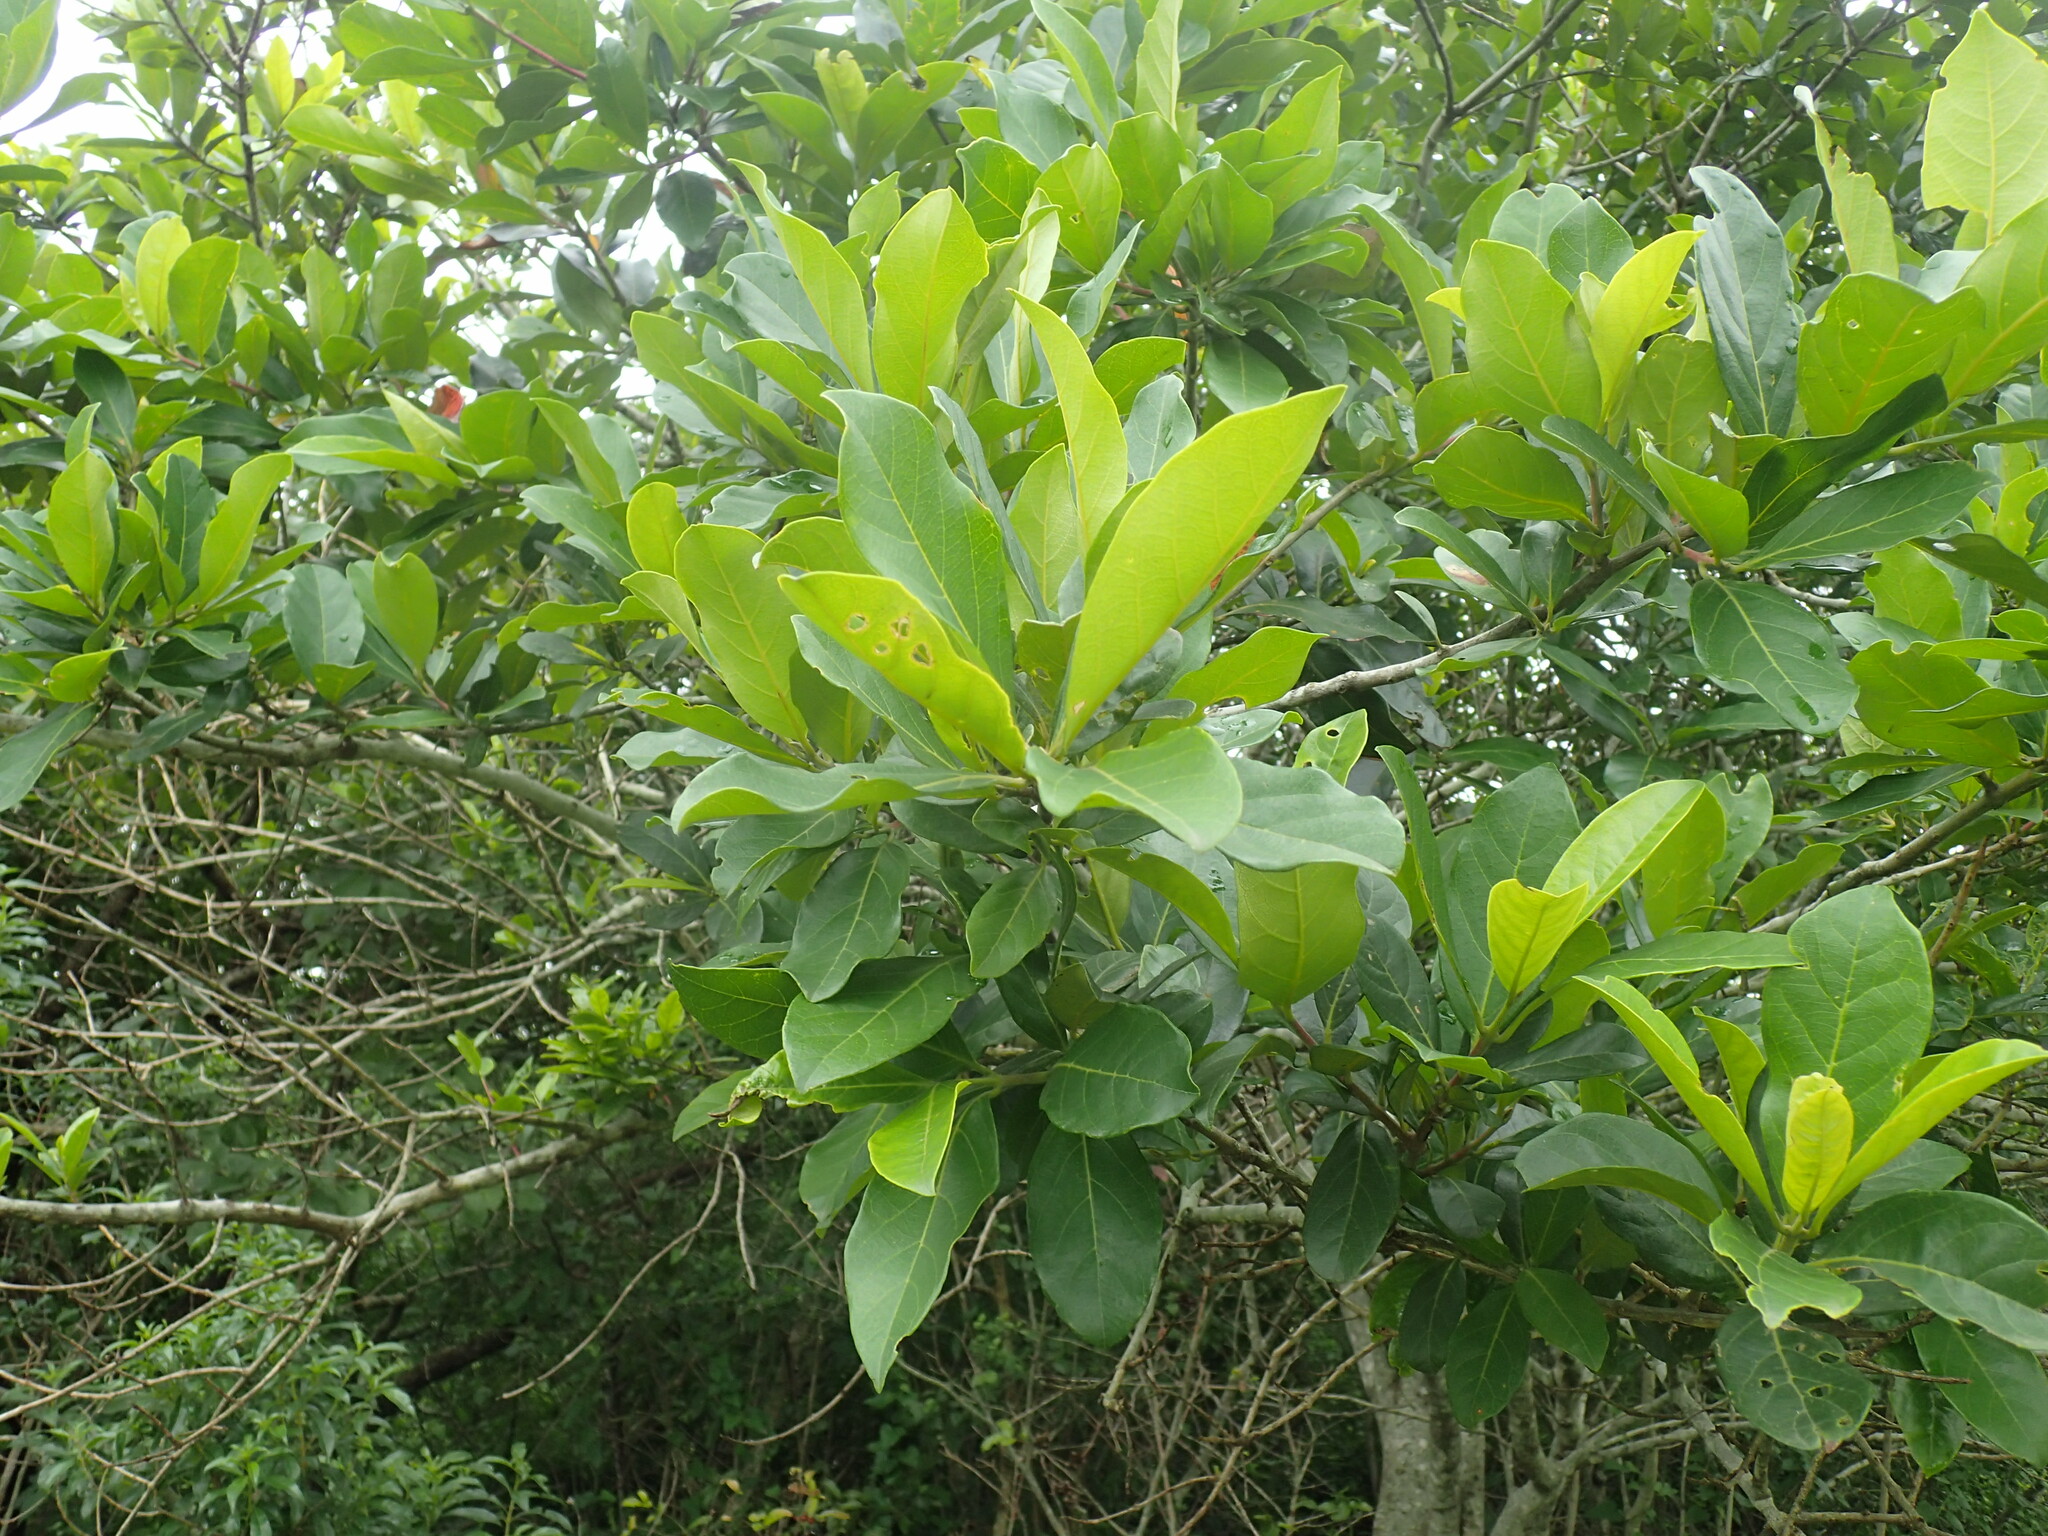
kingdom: Plantae
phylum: Tracheophyta
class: Magnoliopsida
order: Myrtales
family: Combretaceae
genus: Combretum
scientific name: Combretum kraussii
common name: Forest bushwillow
